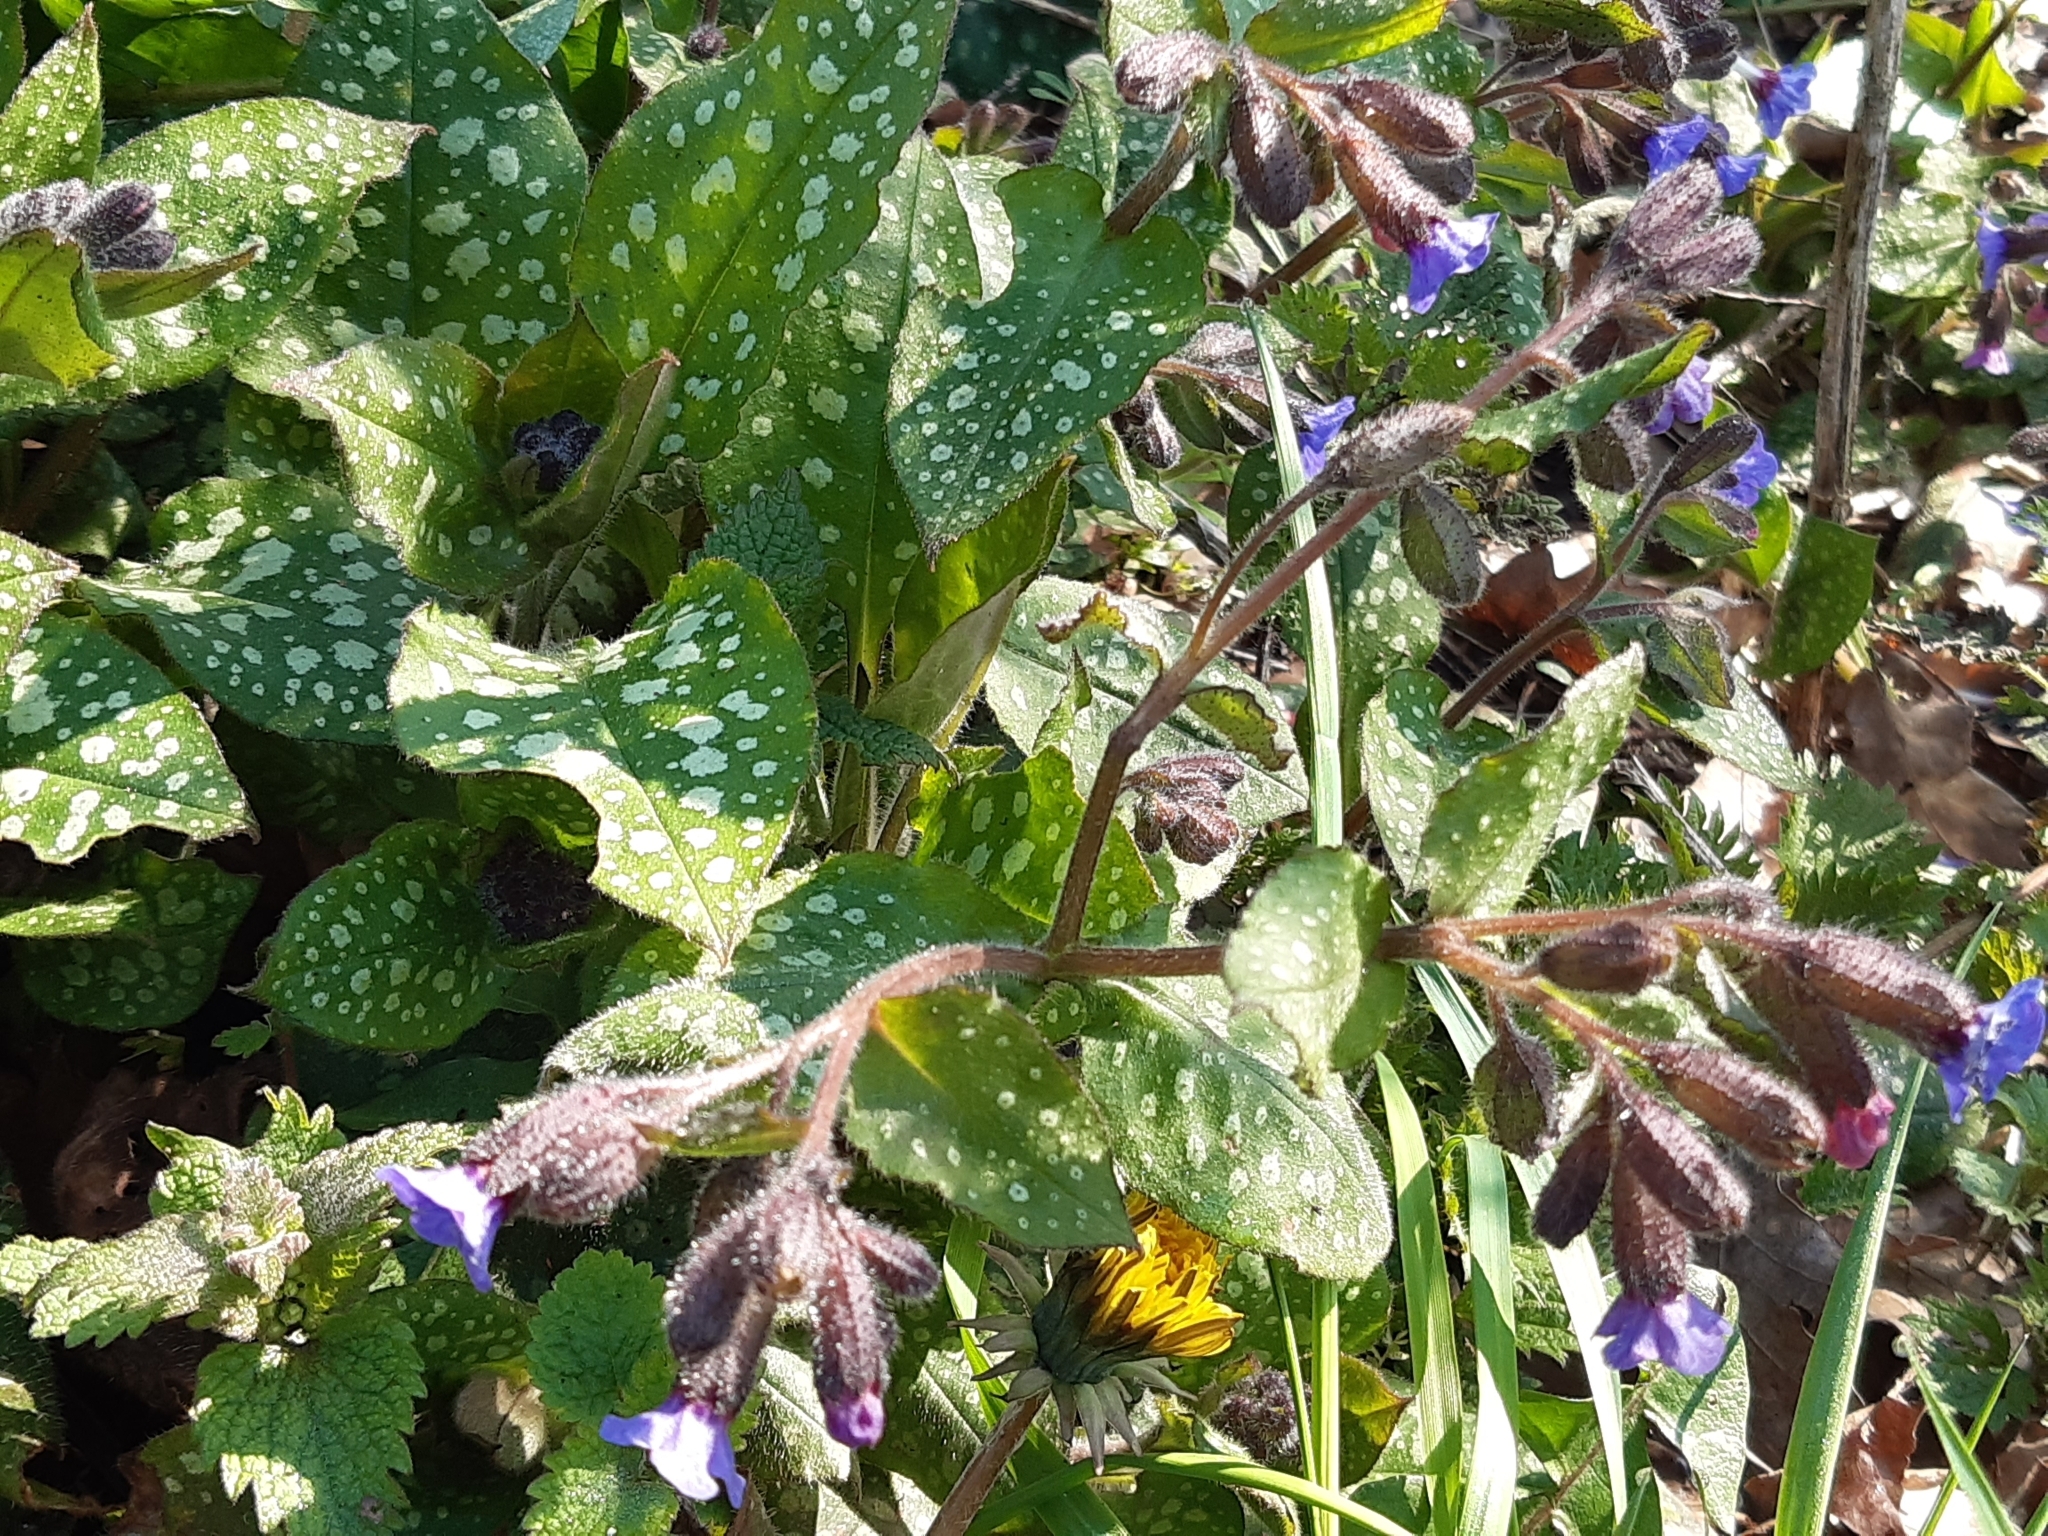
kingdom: Plantae
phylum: Tracheophyta
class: Magnoliopsida
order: Boraginales
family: Boraginaceae
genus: Pulmonaria
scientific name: Pulmonaria officinalis
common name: Lungwort
